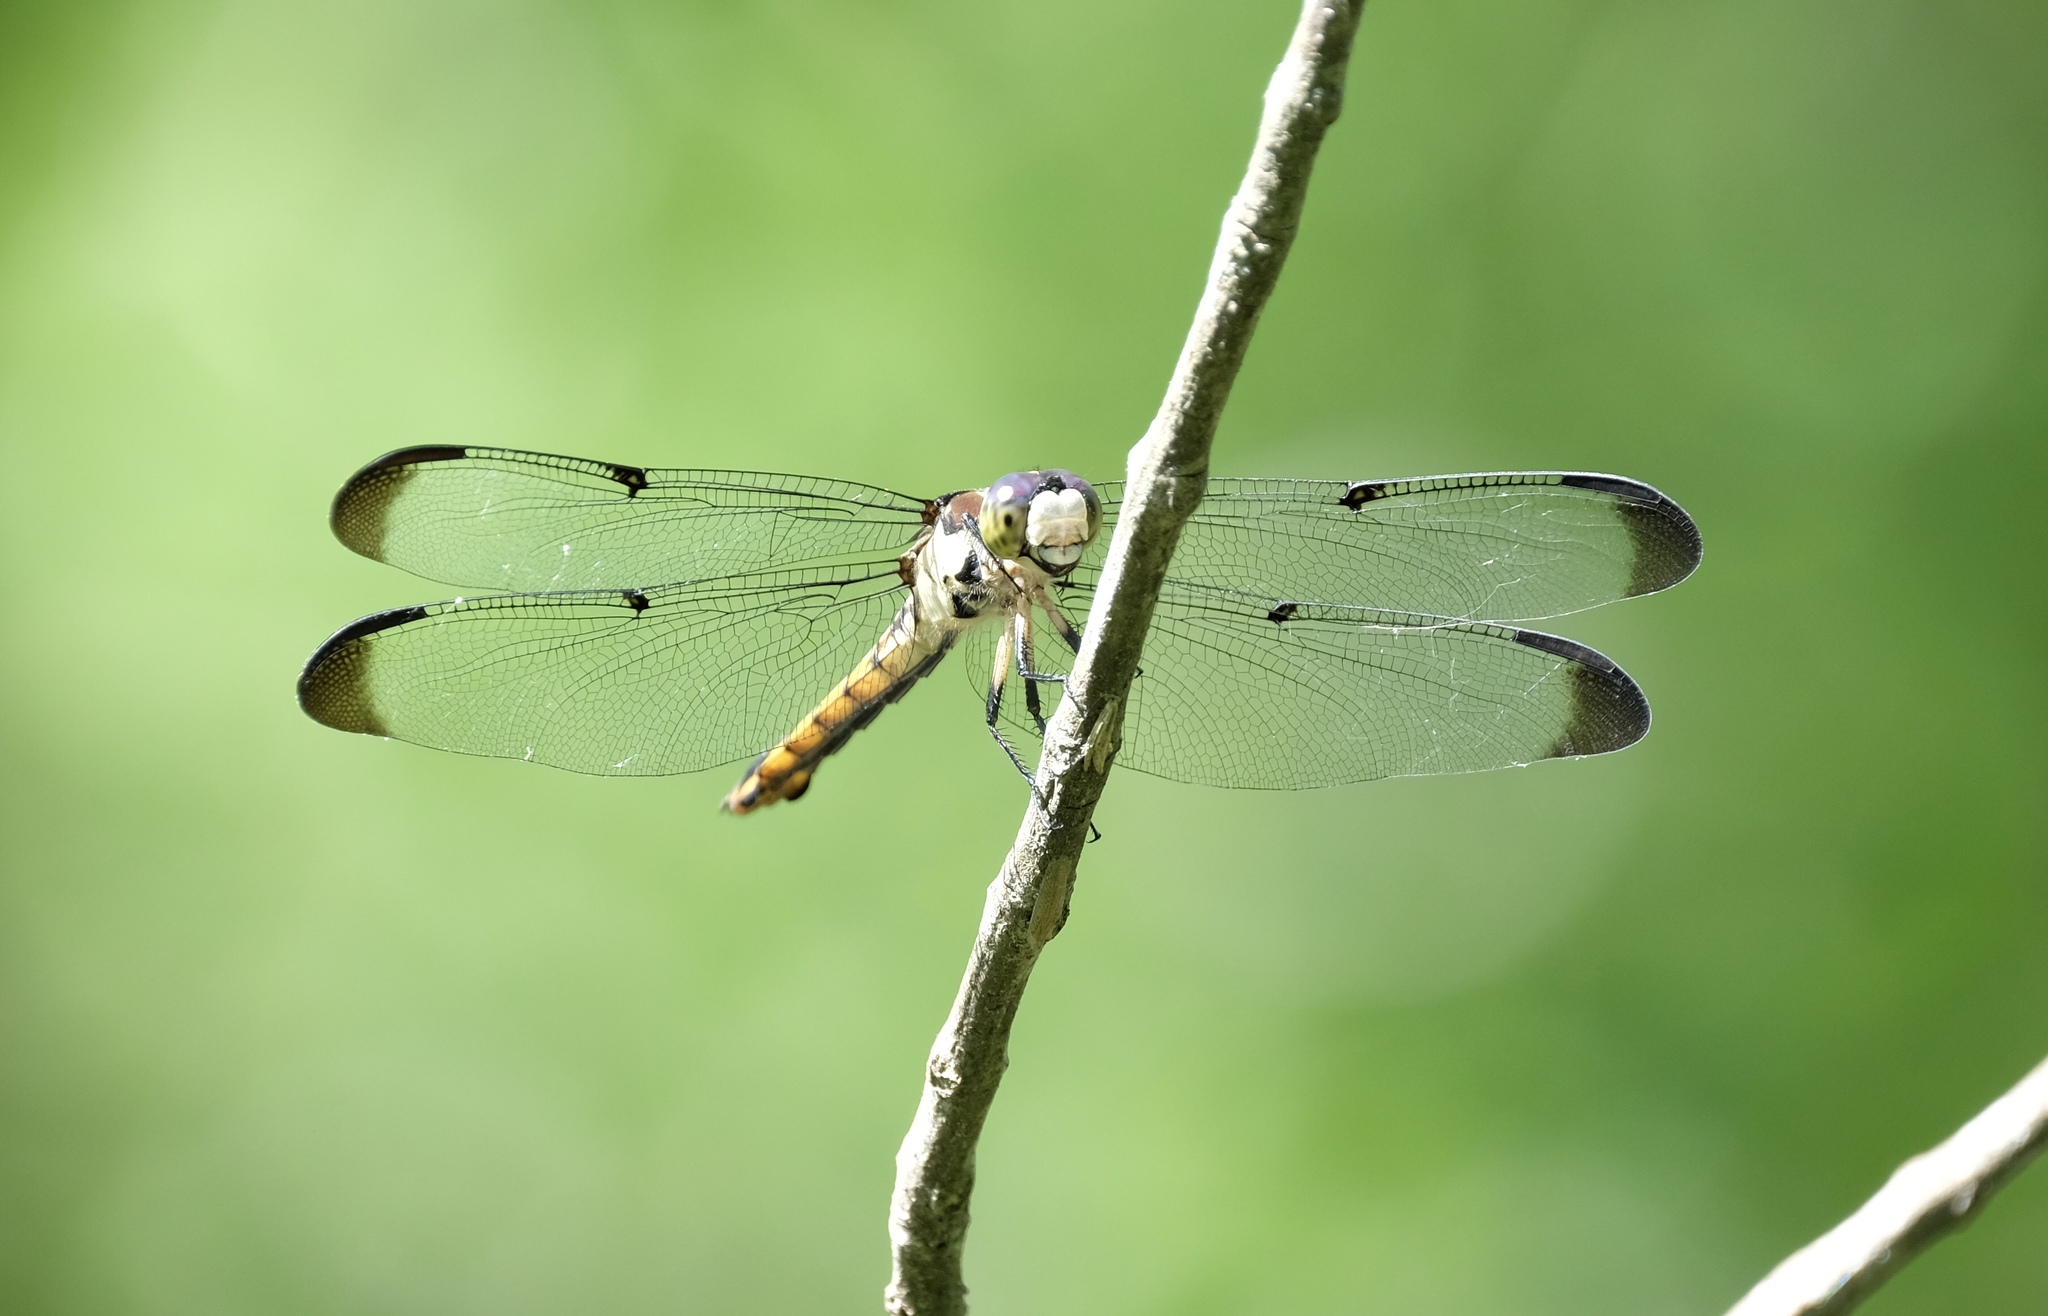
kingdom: Animalia
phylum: Arthropoda
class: Insecta
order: Odonata
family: Libellulidae
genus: Libellula
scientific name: Libellula vibrans
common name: Great blue skimmer
